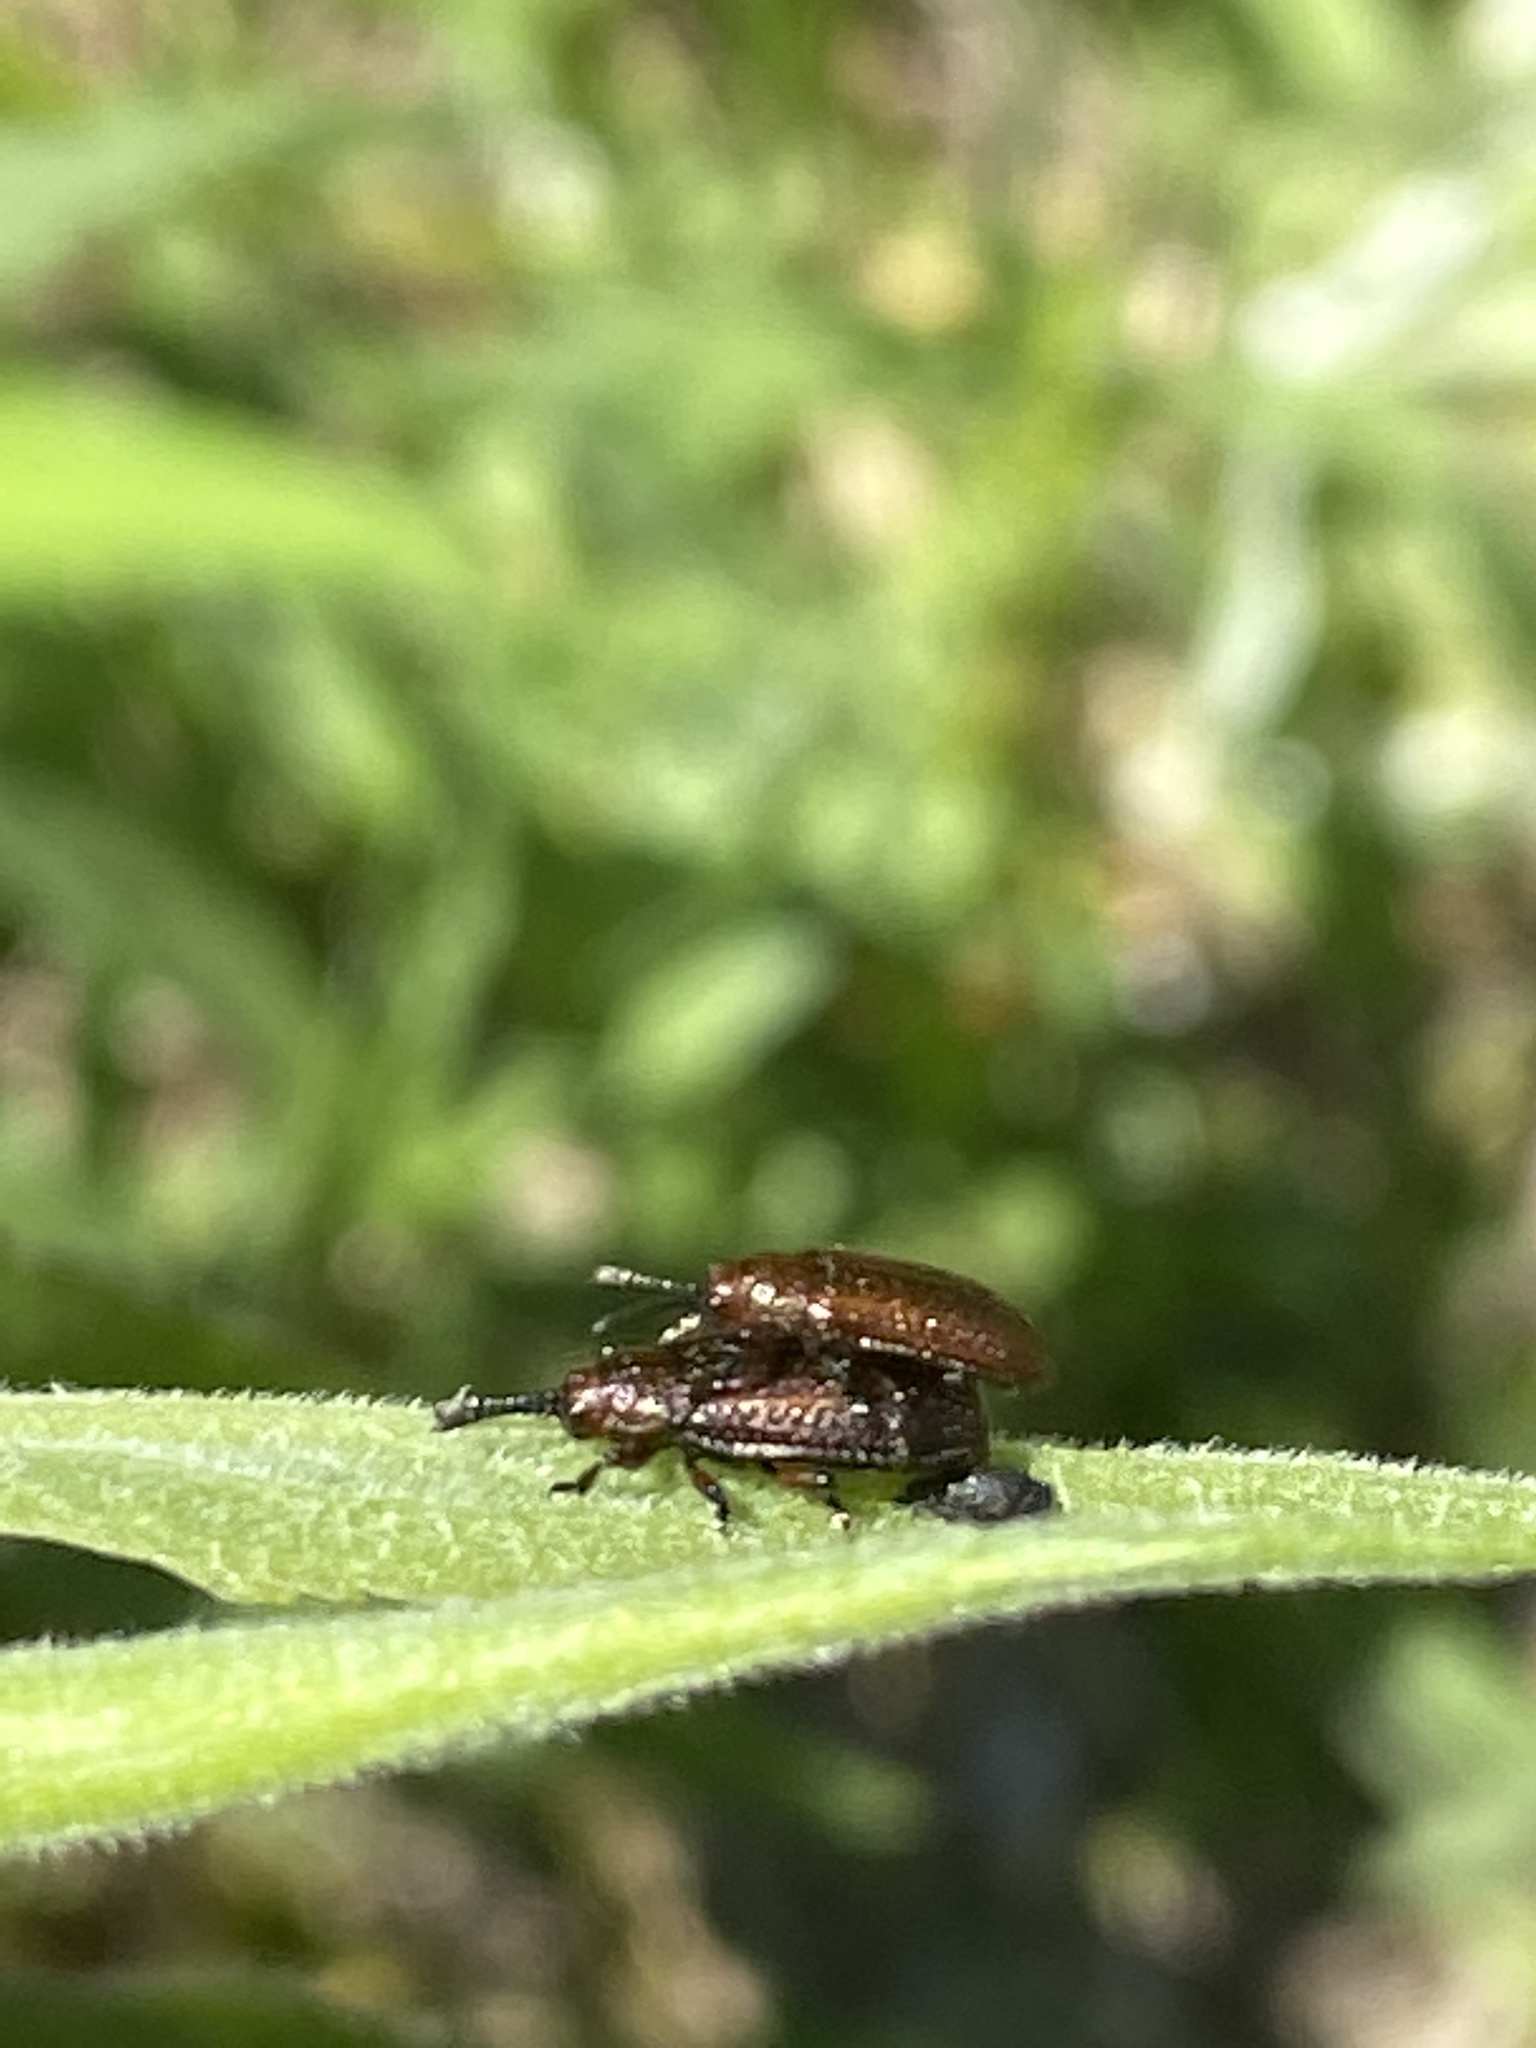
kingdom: Animalia
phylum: Arthropoda
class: Insecta
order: Coleoptera
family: Chrysomelidae
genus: Microrhopala
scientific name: Microrhopala vittata
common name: Goldenrod leaf miner beetle
